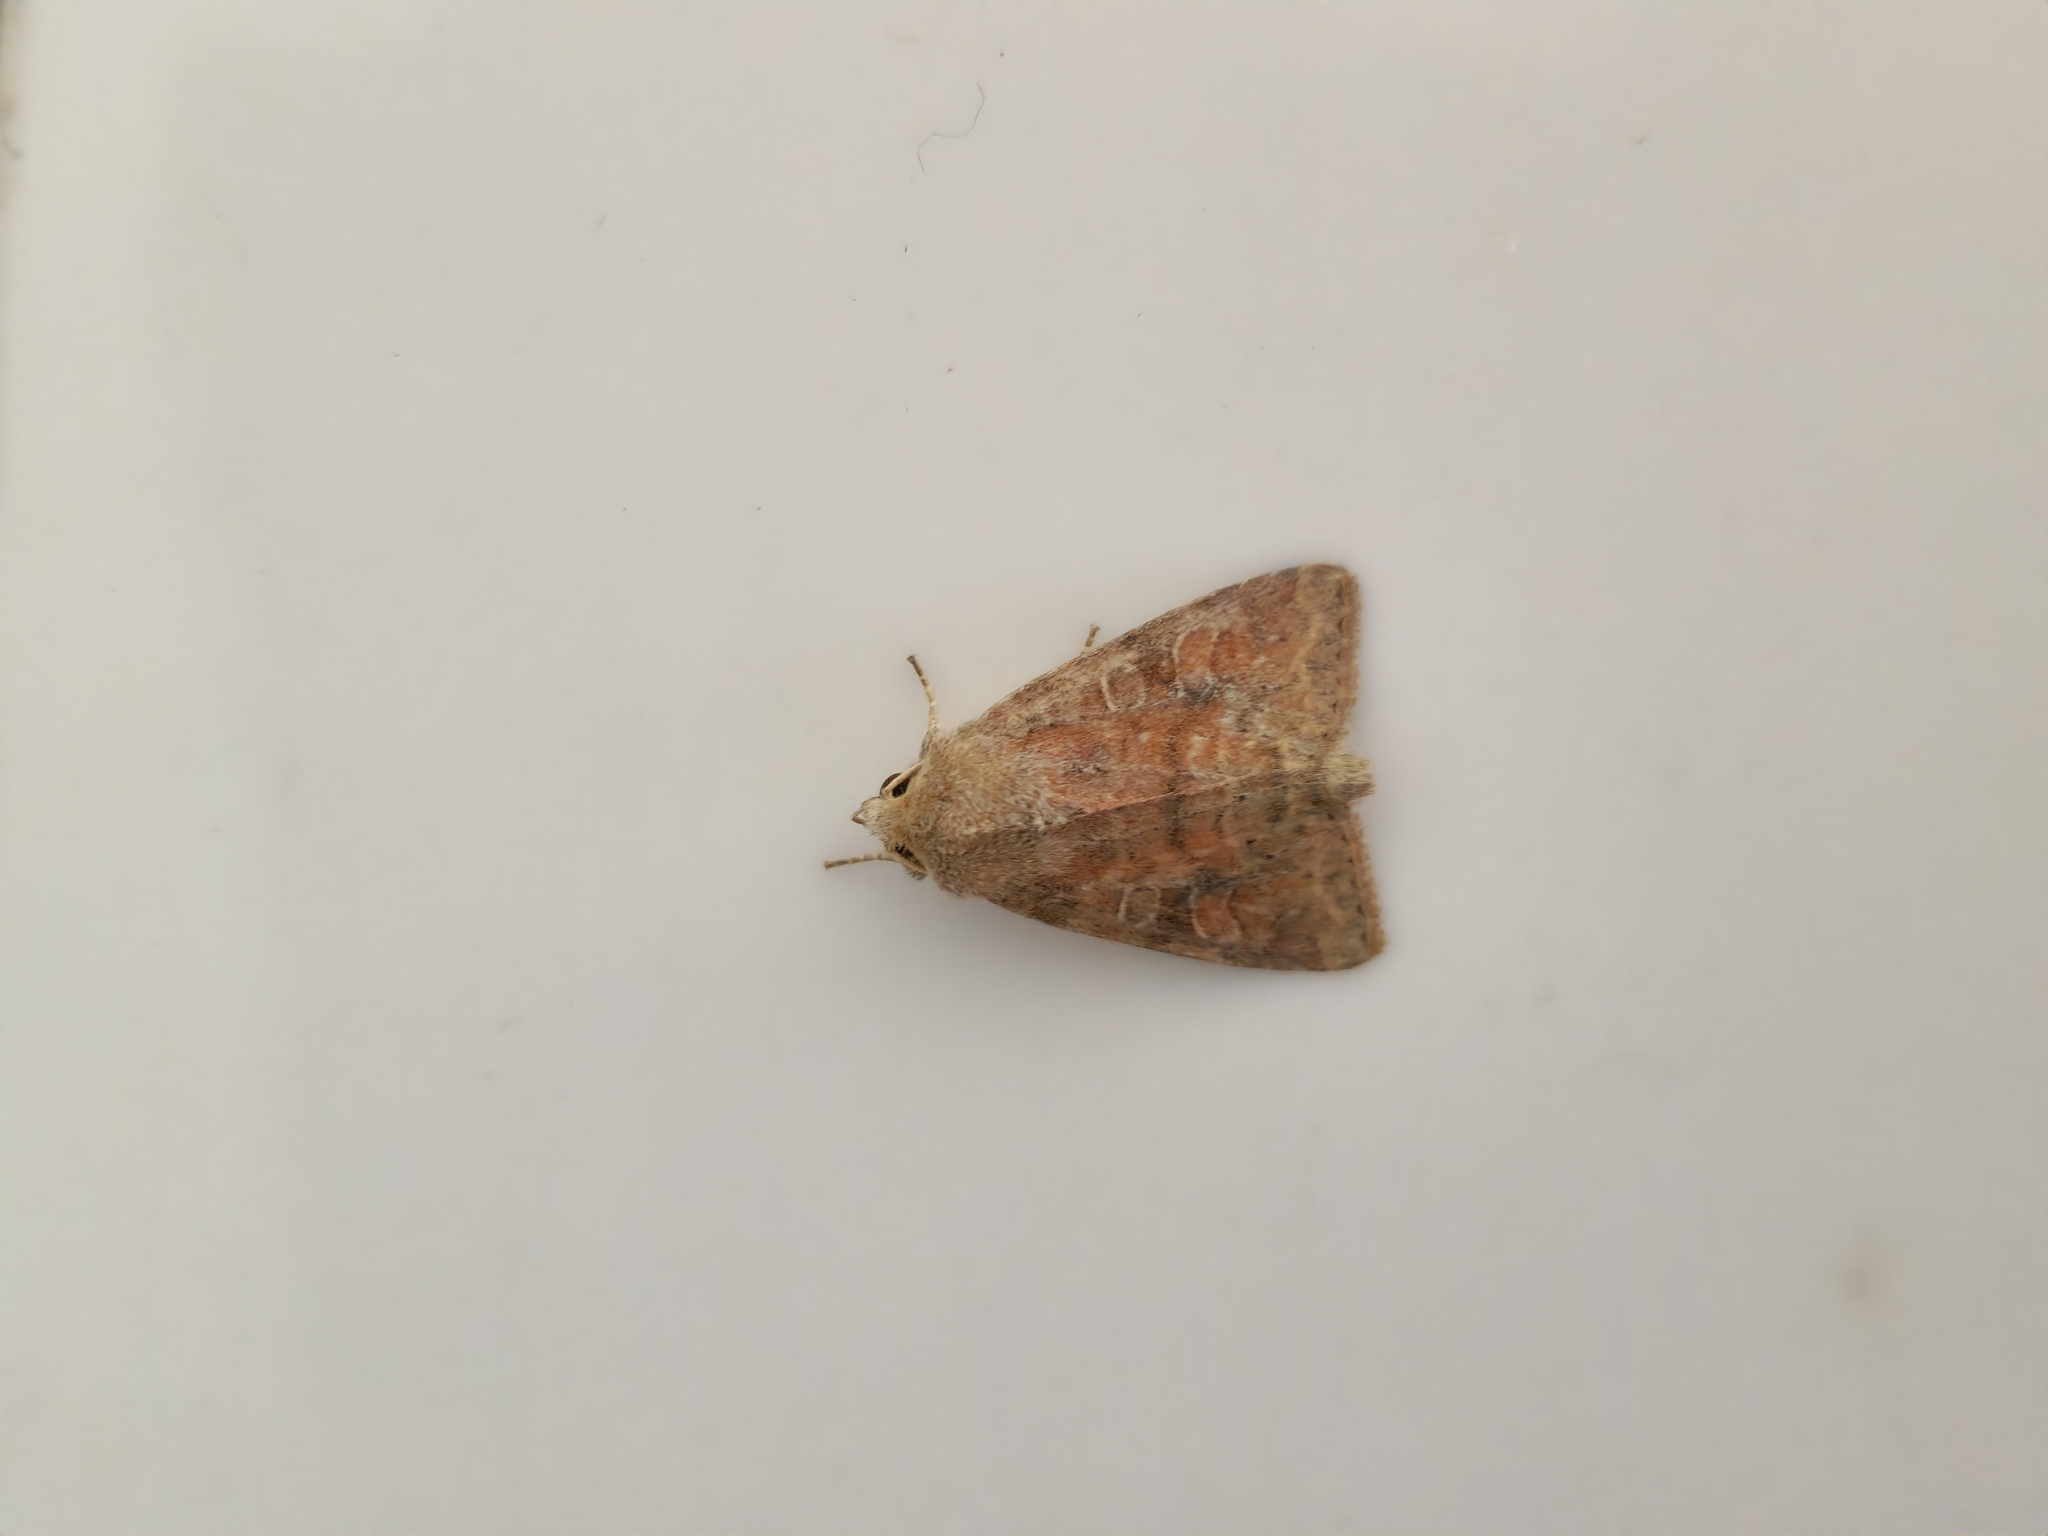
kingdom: Animalia
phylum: Arthropoda
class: Insecta
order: Lepidoptera
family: Noctuidae
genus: Parastichtis
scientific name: Parastichtis suspecta
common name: Suspected
